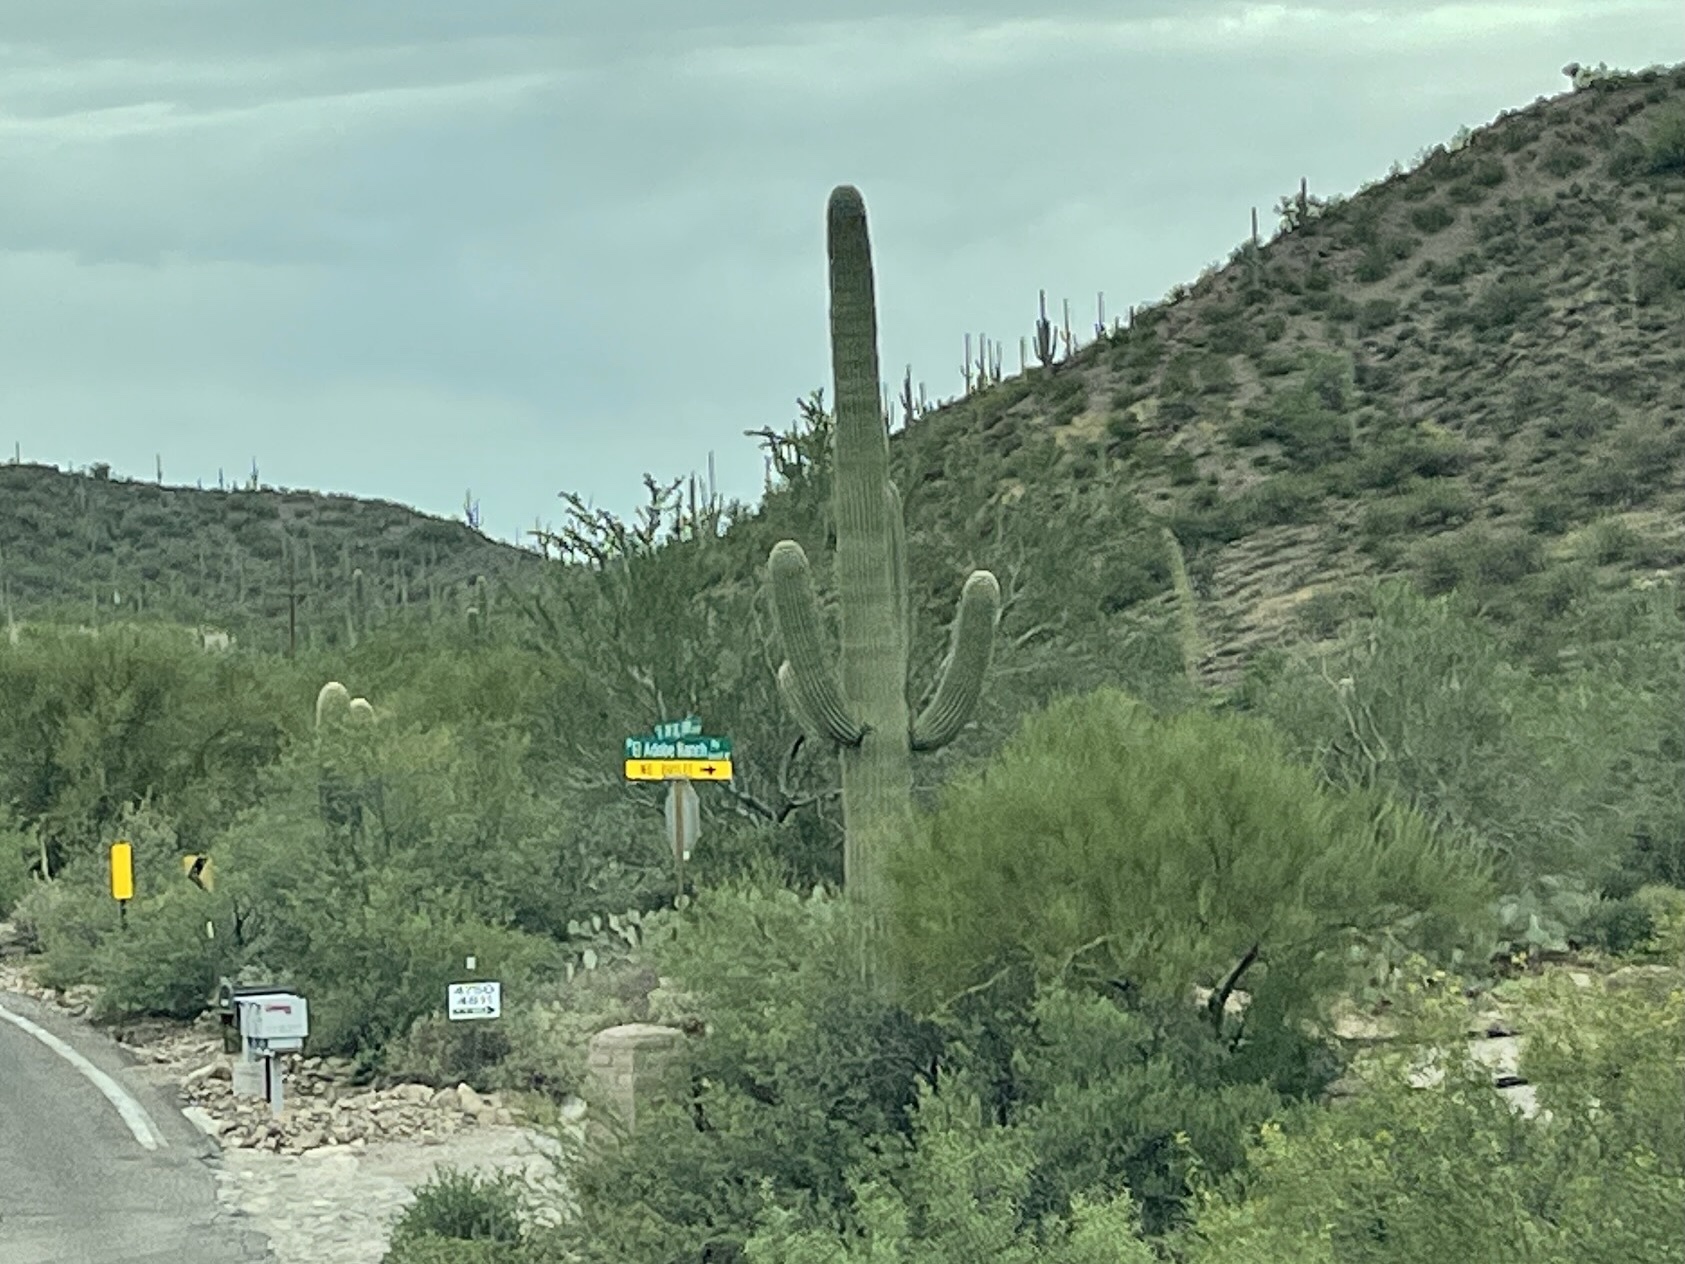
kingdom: Plantae
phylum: Tracheophyta
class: Magnoliopsida
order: Caryophyllales
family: Cactaceae
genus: Carnegiea
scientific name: Carnegiea gigantea
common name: Saguaro
